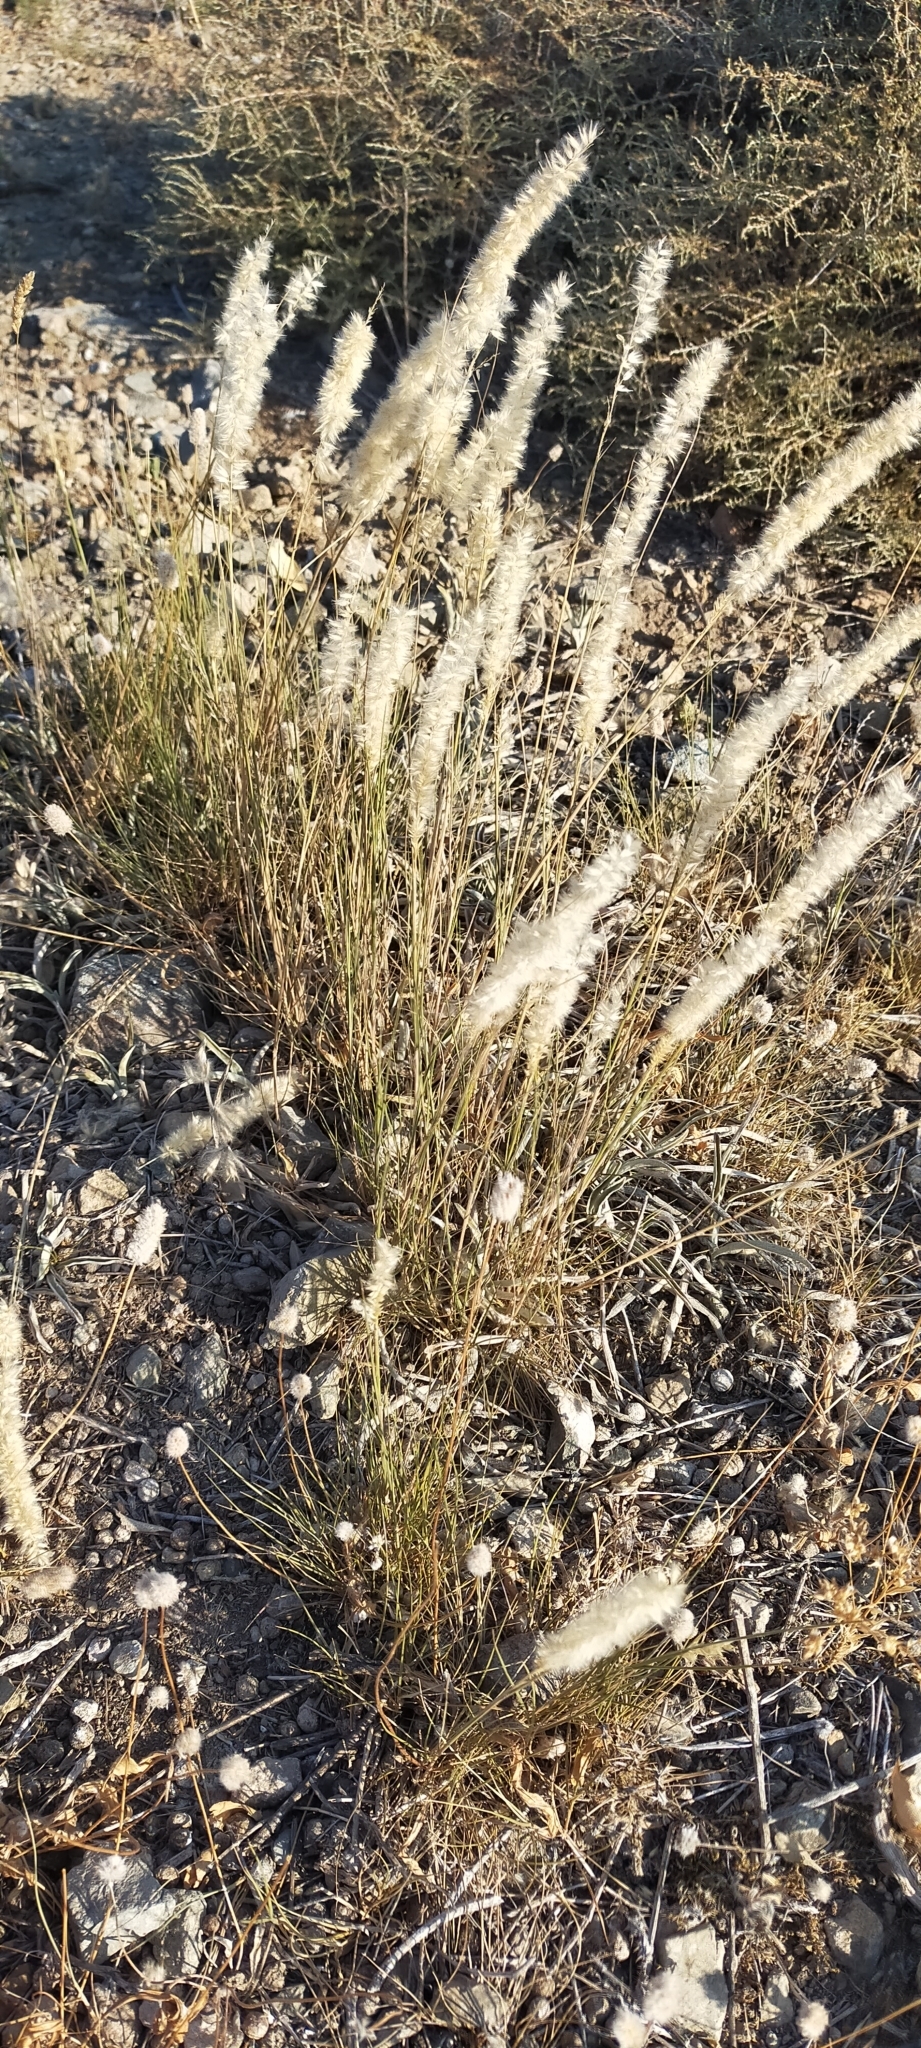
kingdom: Plantae
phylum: Tracheophyta
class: Liliopsida
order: Poales
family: Poaceae
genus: Melica
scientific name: Melica ciliata
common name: Hairy melicgrass
